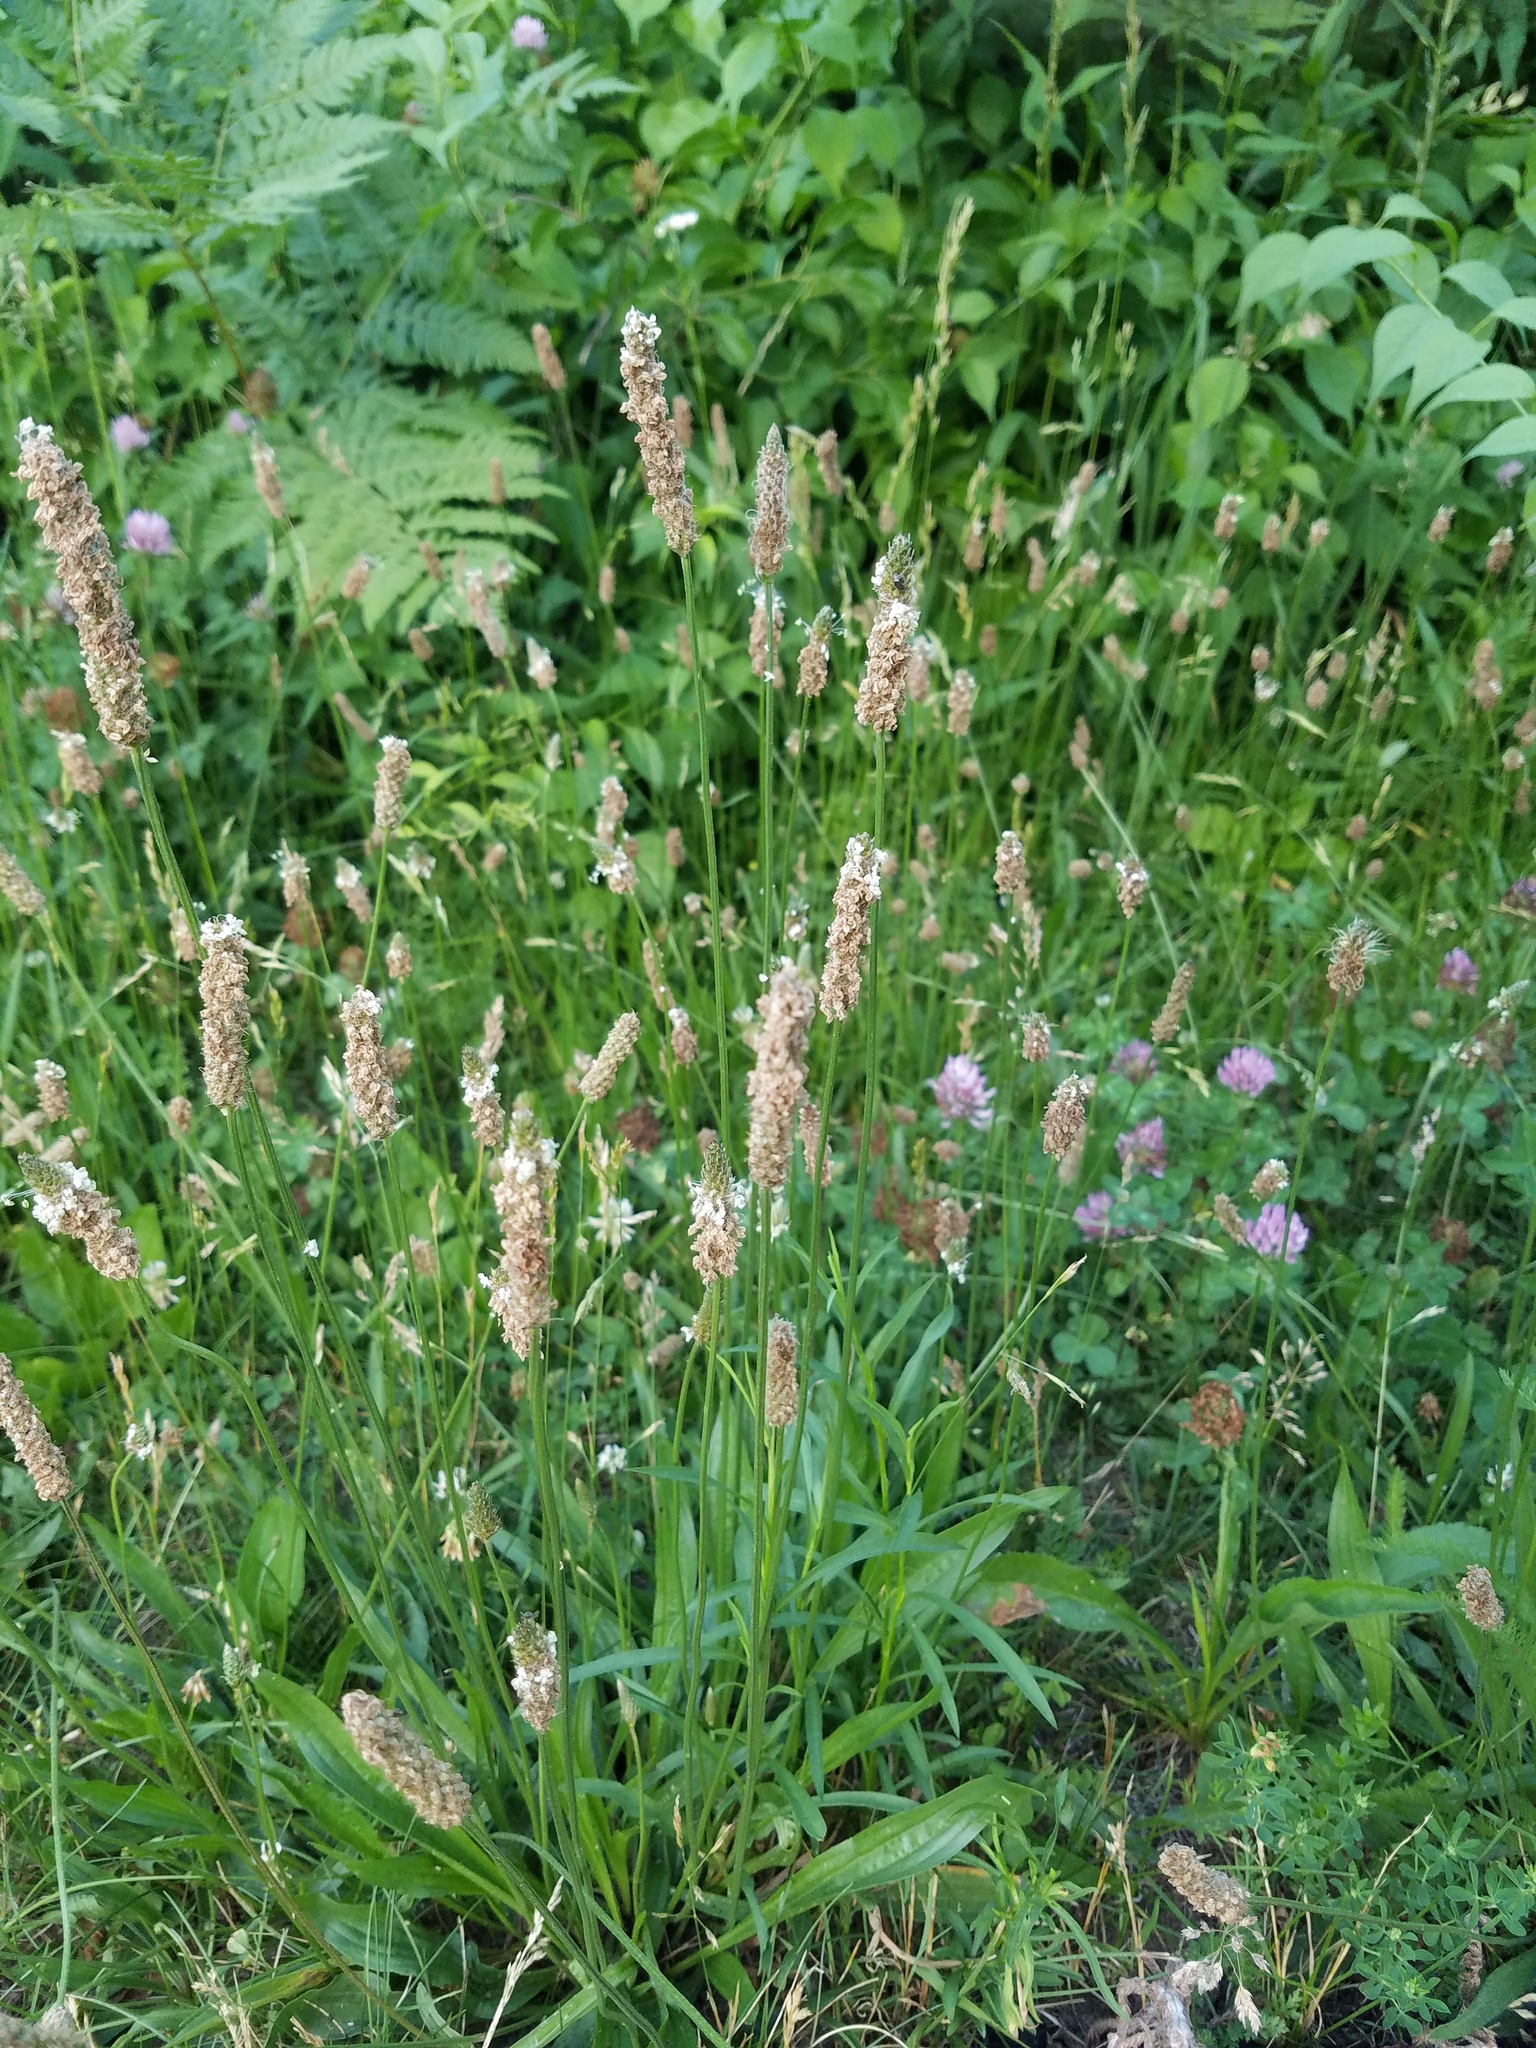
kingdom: Plantae
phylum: Tracheophyta
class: Magnoliopsida
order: Lamiales
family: Plantaginaceae
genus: Plantago
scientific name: Plantago lanceolata
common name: Ribwort plantain
